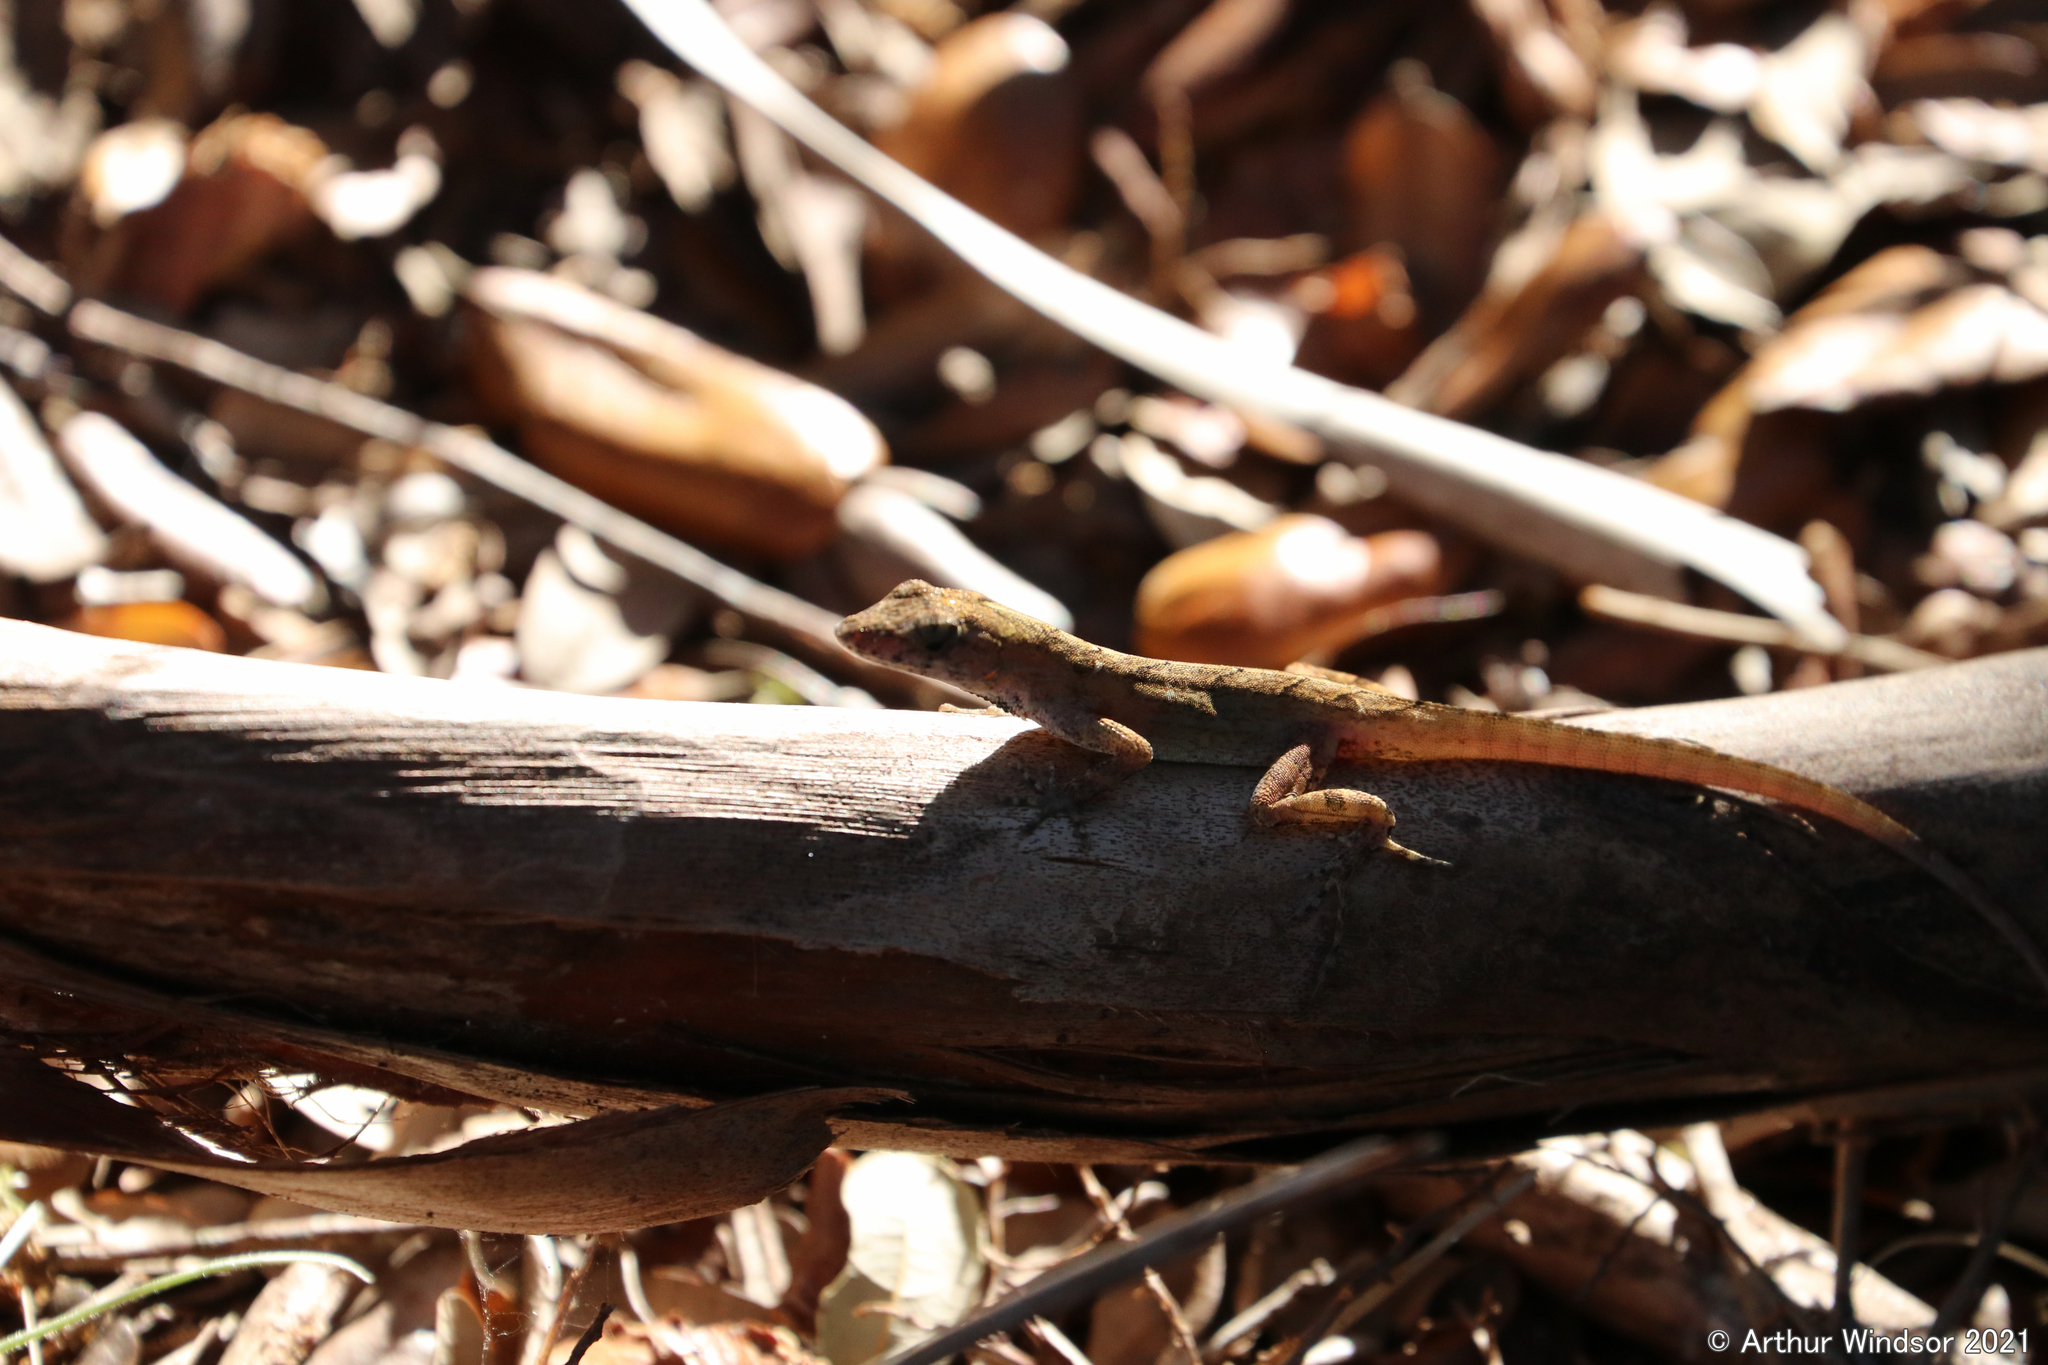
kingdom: Animalia
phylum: Chordata
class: Squamata
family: Dactyloidae
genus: Anolis
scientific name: Anolis sagrei
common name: Brown anole
